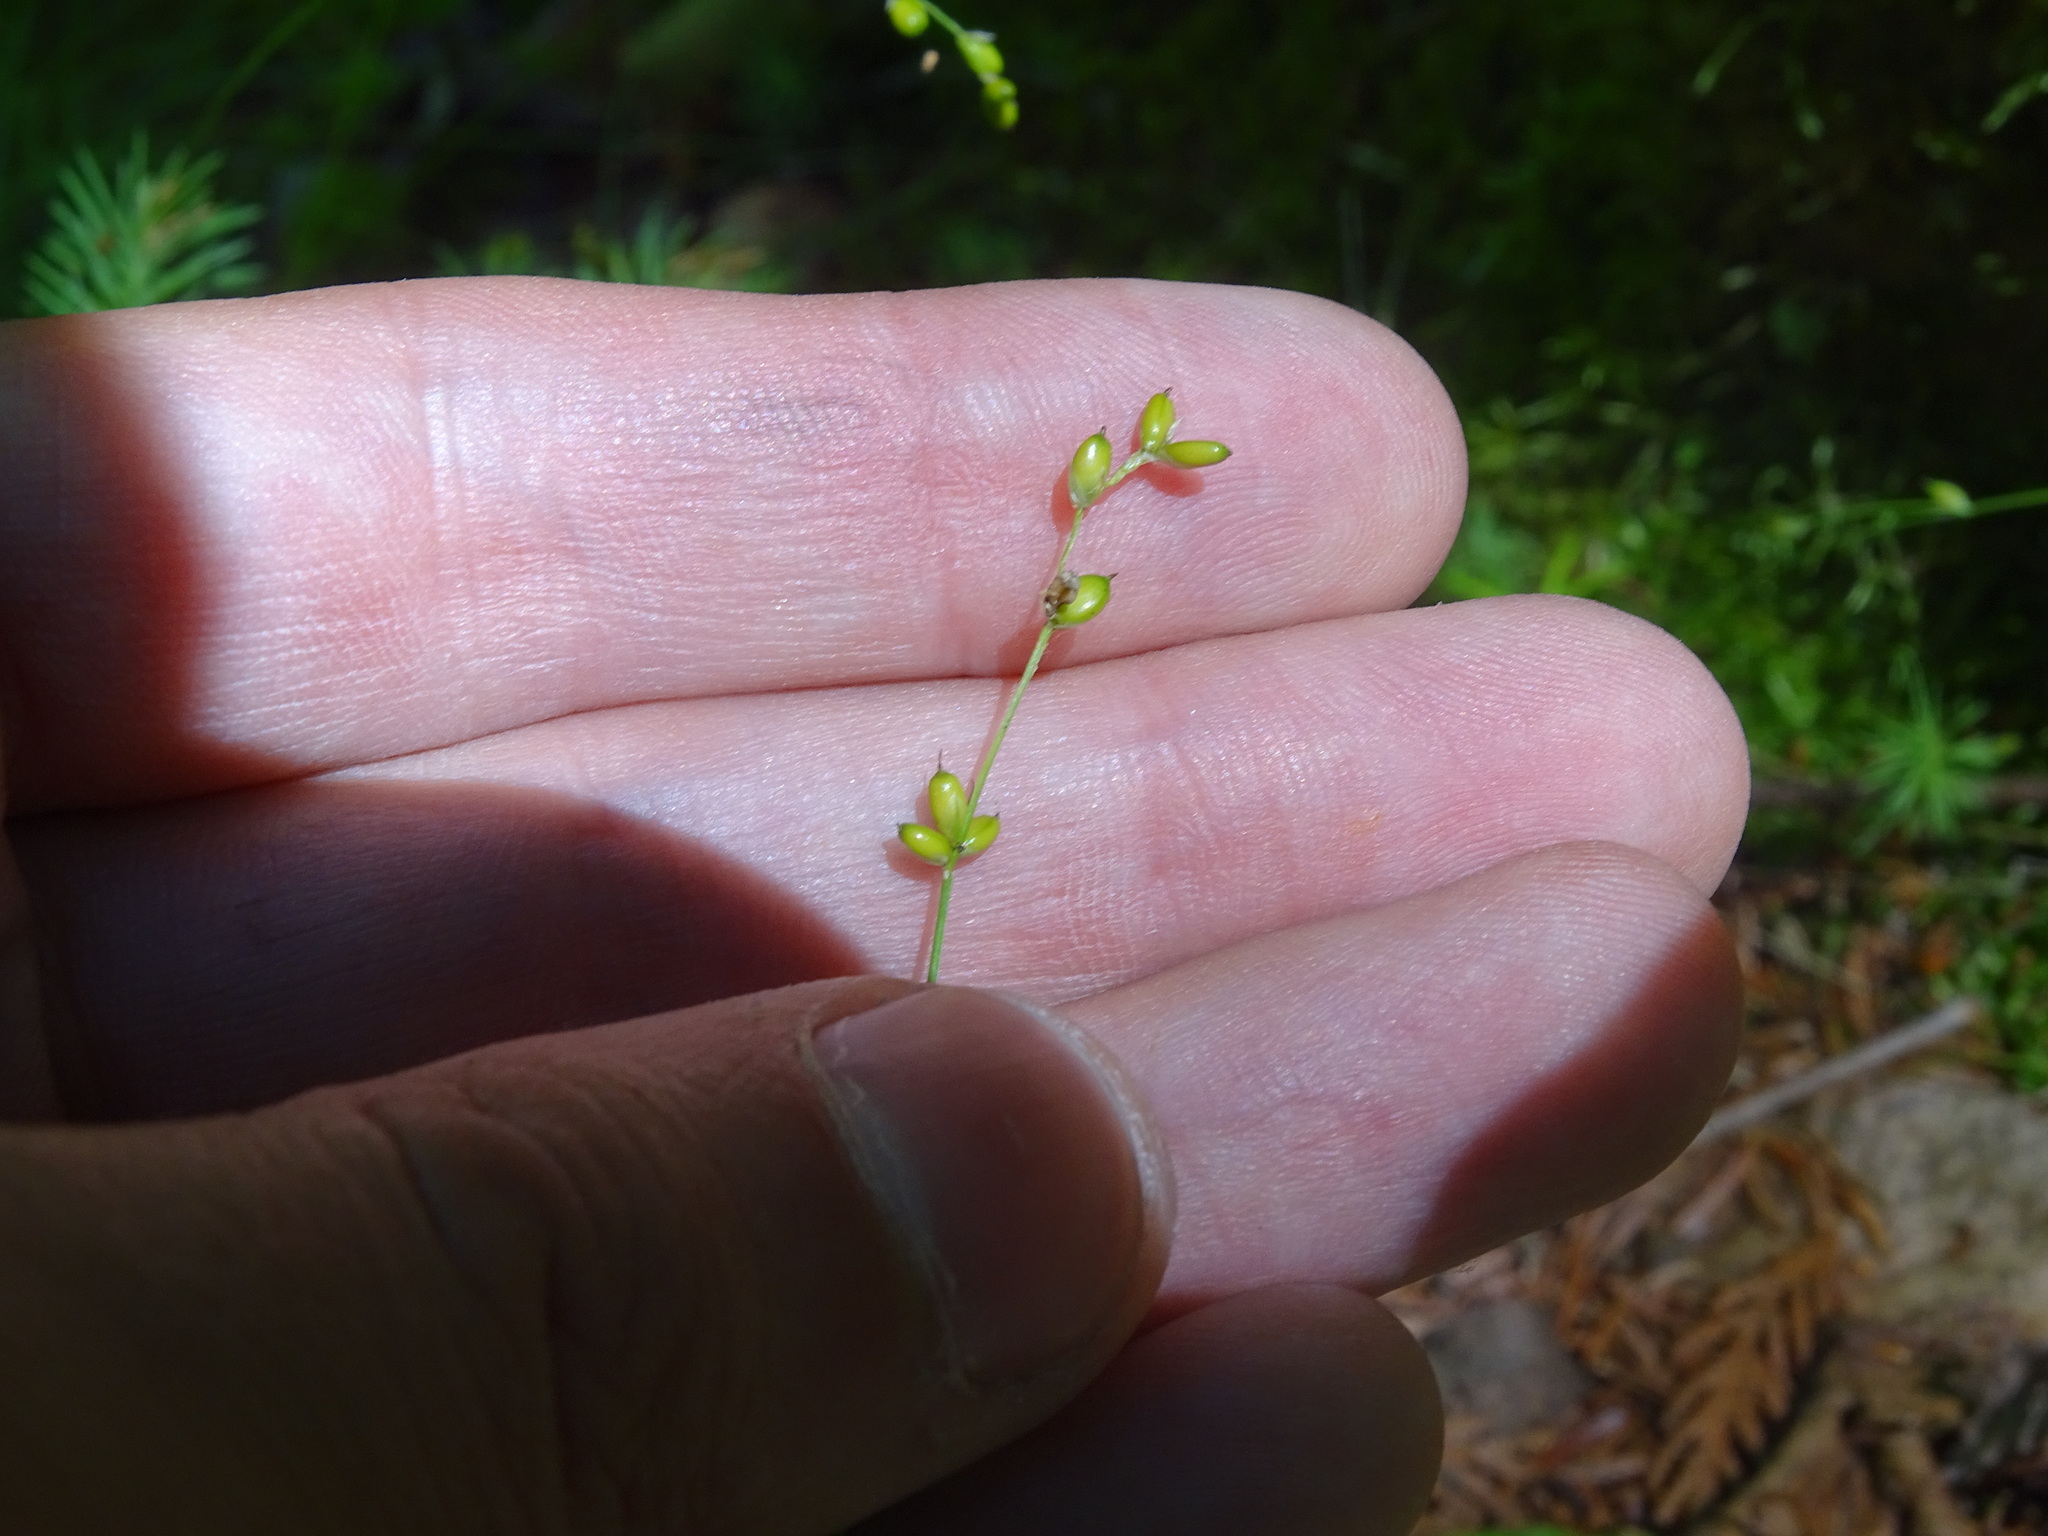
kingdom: Plantae
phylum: Tracheophyta
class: Liliopsida
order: Poales
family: Cyperaceae
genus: Carex
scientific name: Carex disperma
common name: Short-leaved sedge
